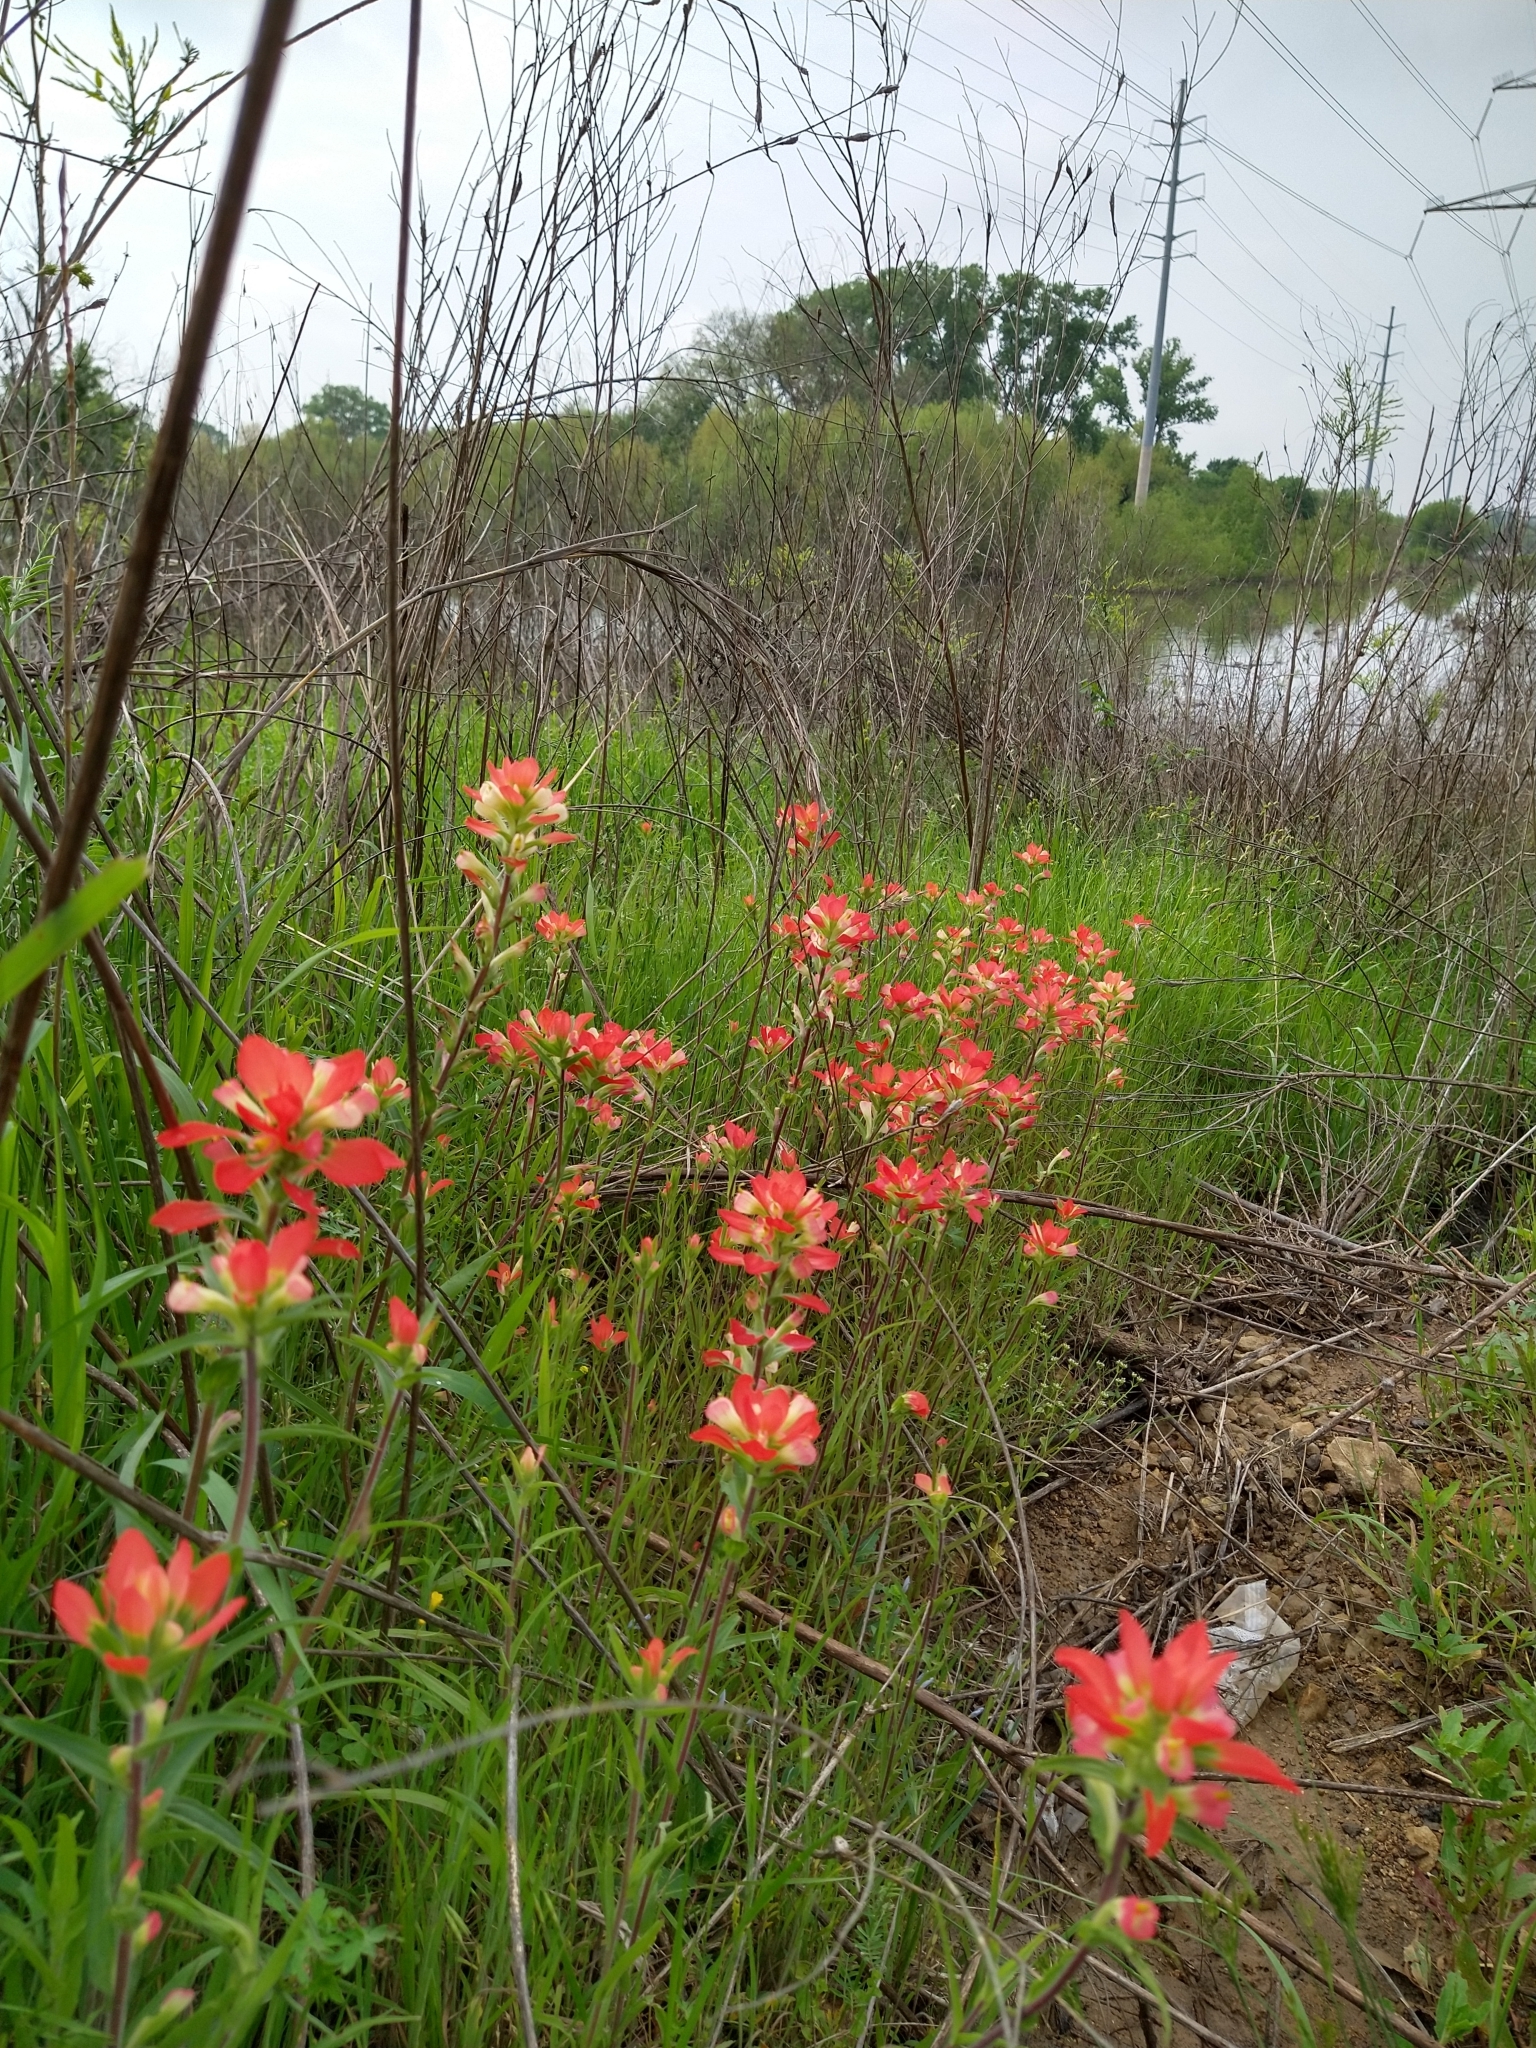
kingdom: Plantae
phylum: Tracheophyta
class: Magnoliopsida
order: Lamiales
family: Orobanchaceae
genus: Castilleja
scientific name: Castilleja indivisa
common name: Texas paintbrush
